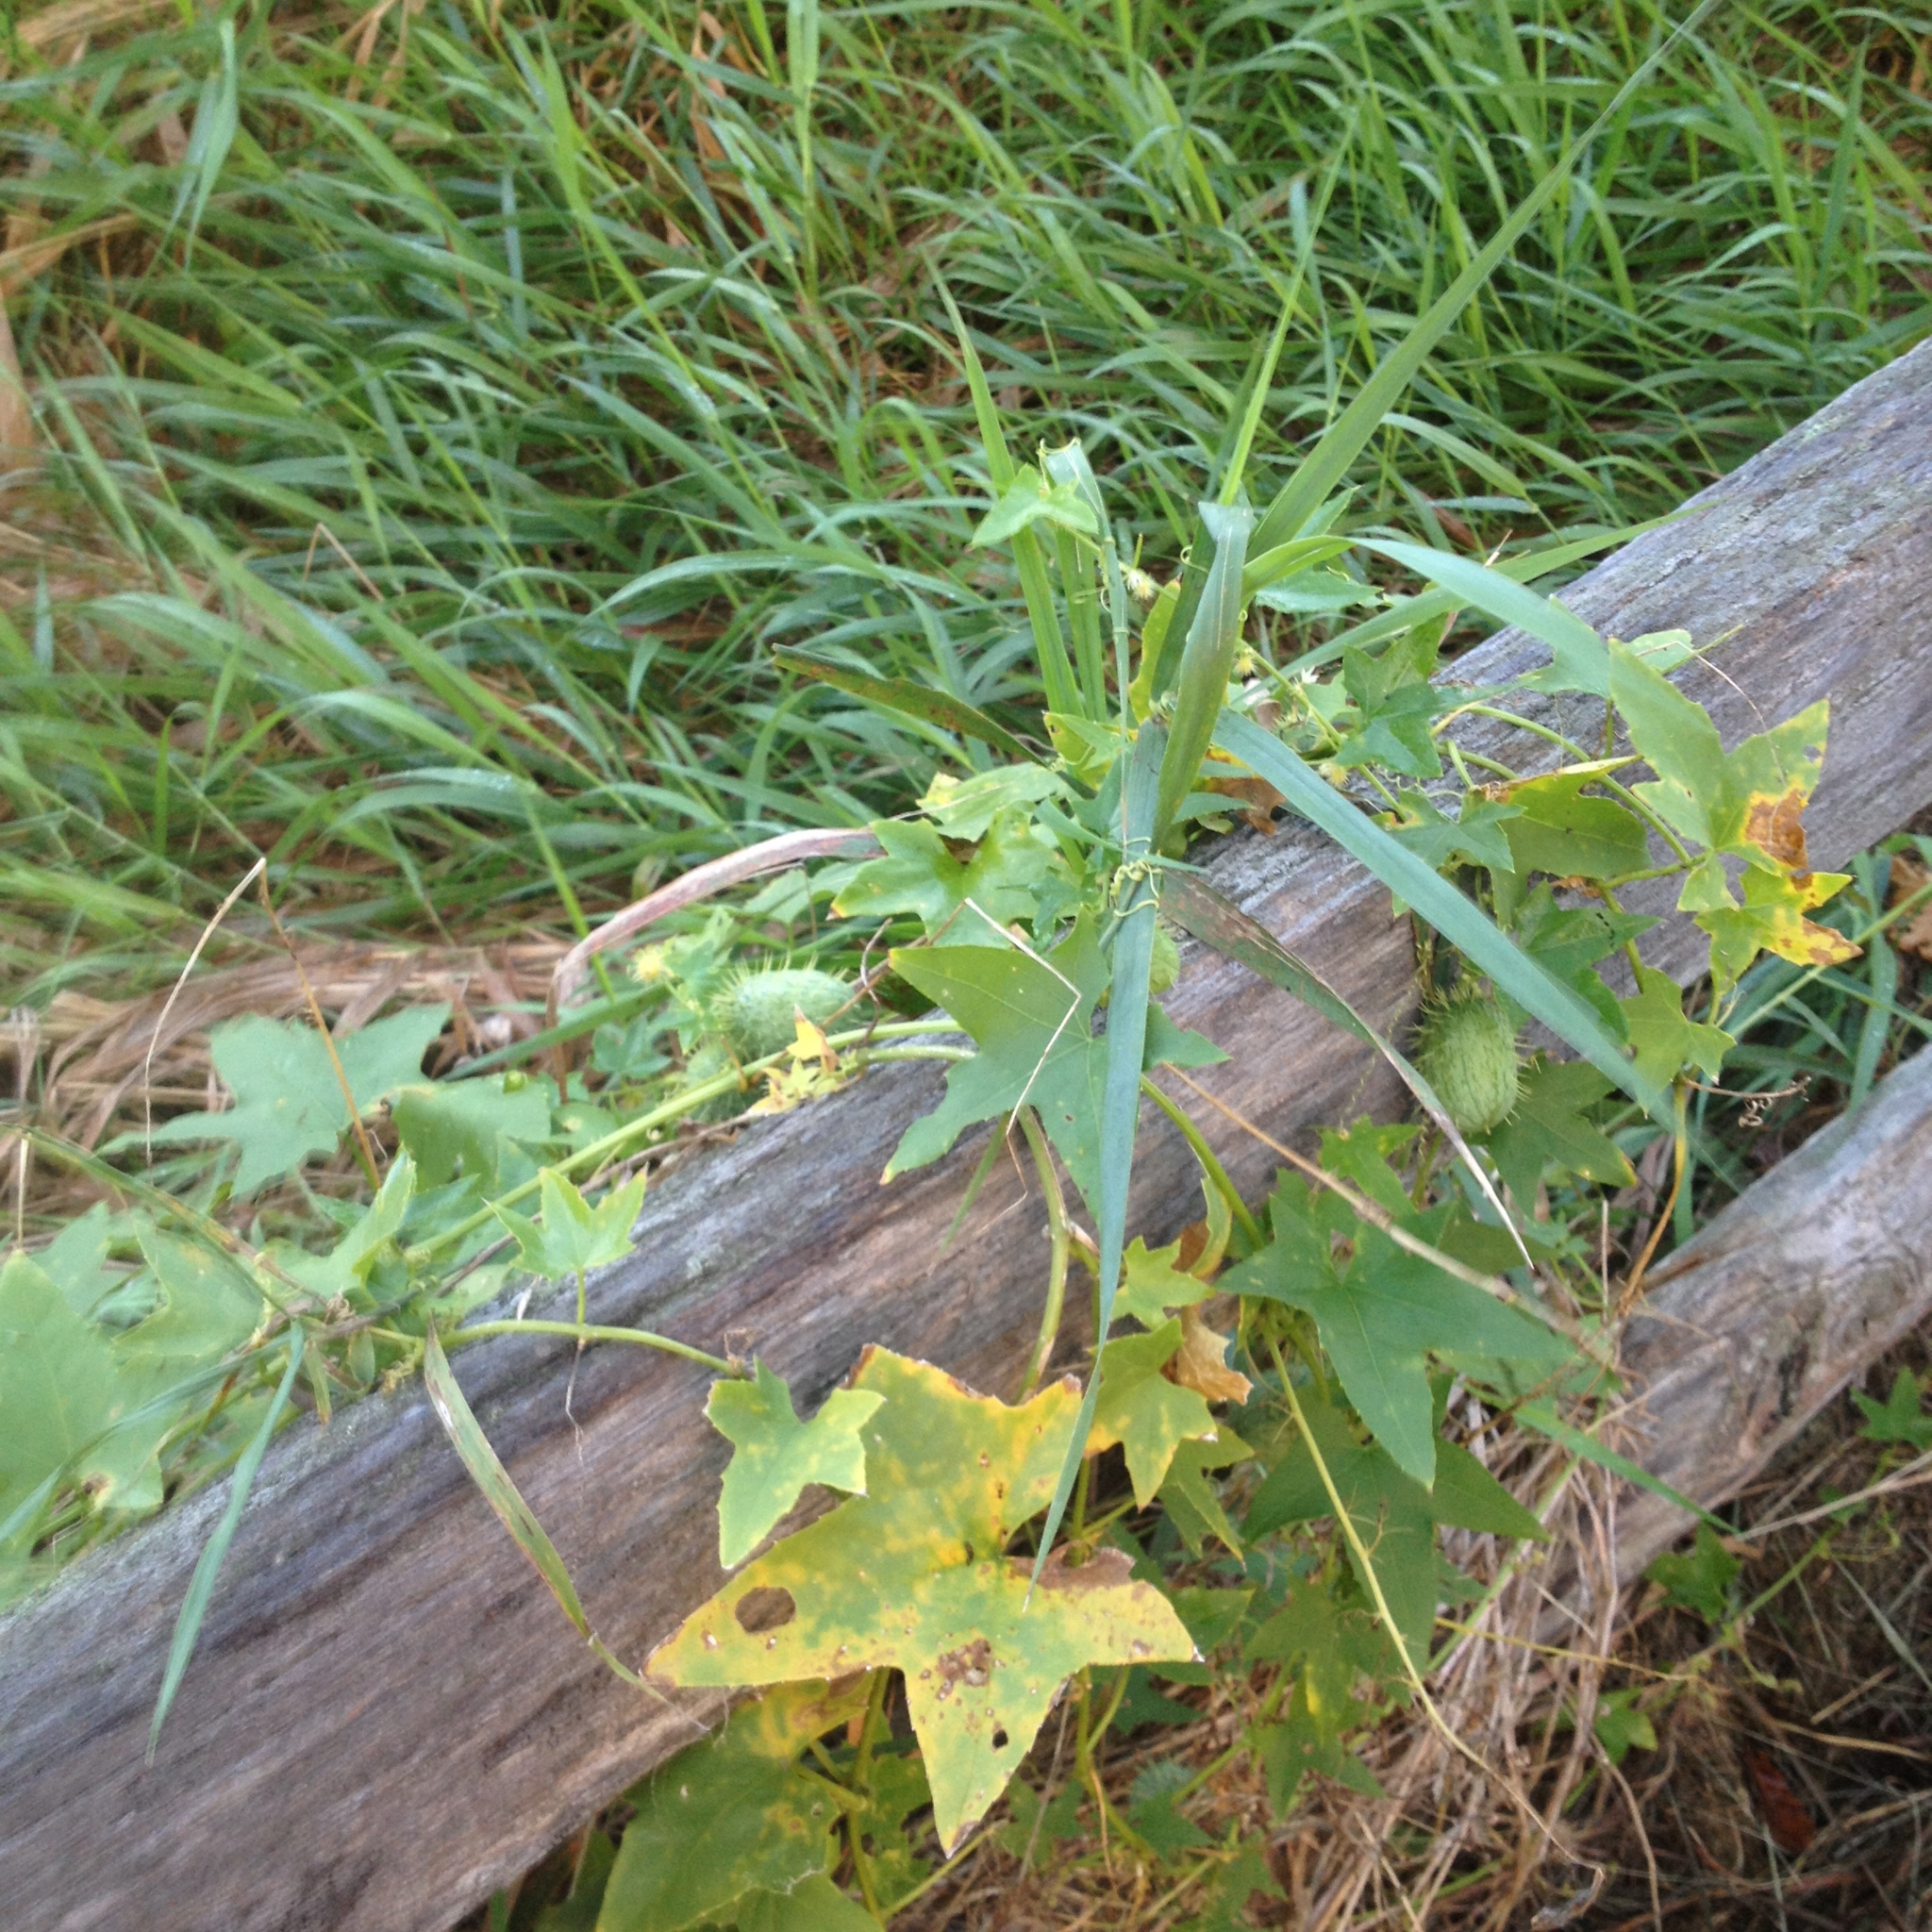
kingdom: Plantae
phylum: Tracheophyta
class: Magnoliopsida
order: Cucurbitales
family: Cucurbitaceae
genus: Echinocystis
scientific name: Echinocystis lobata
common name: Wild cucumber
